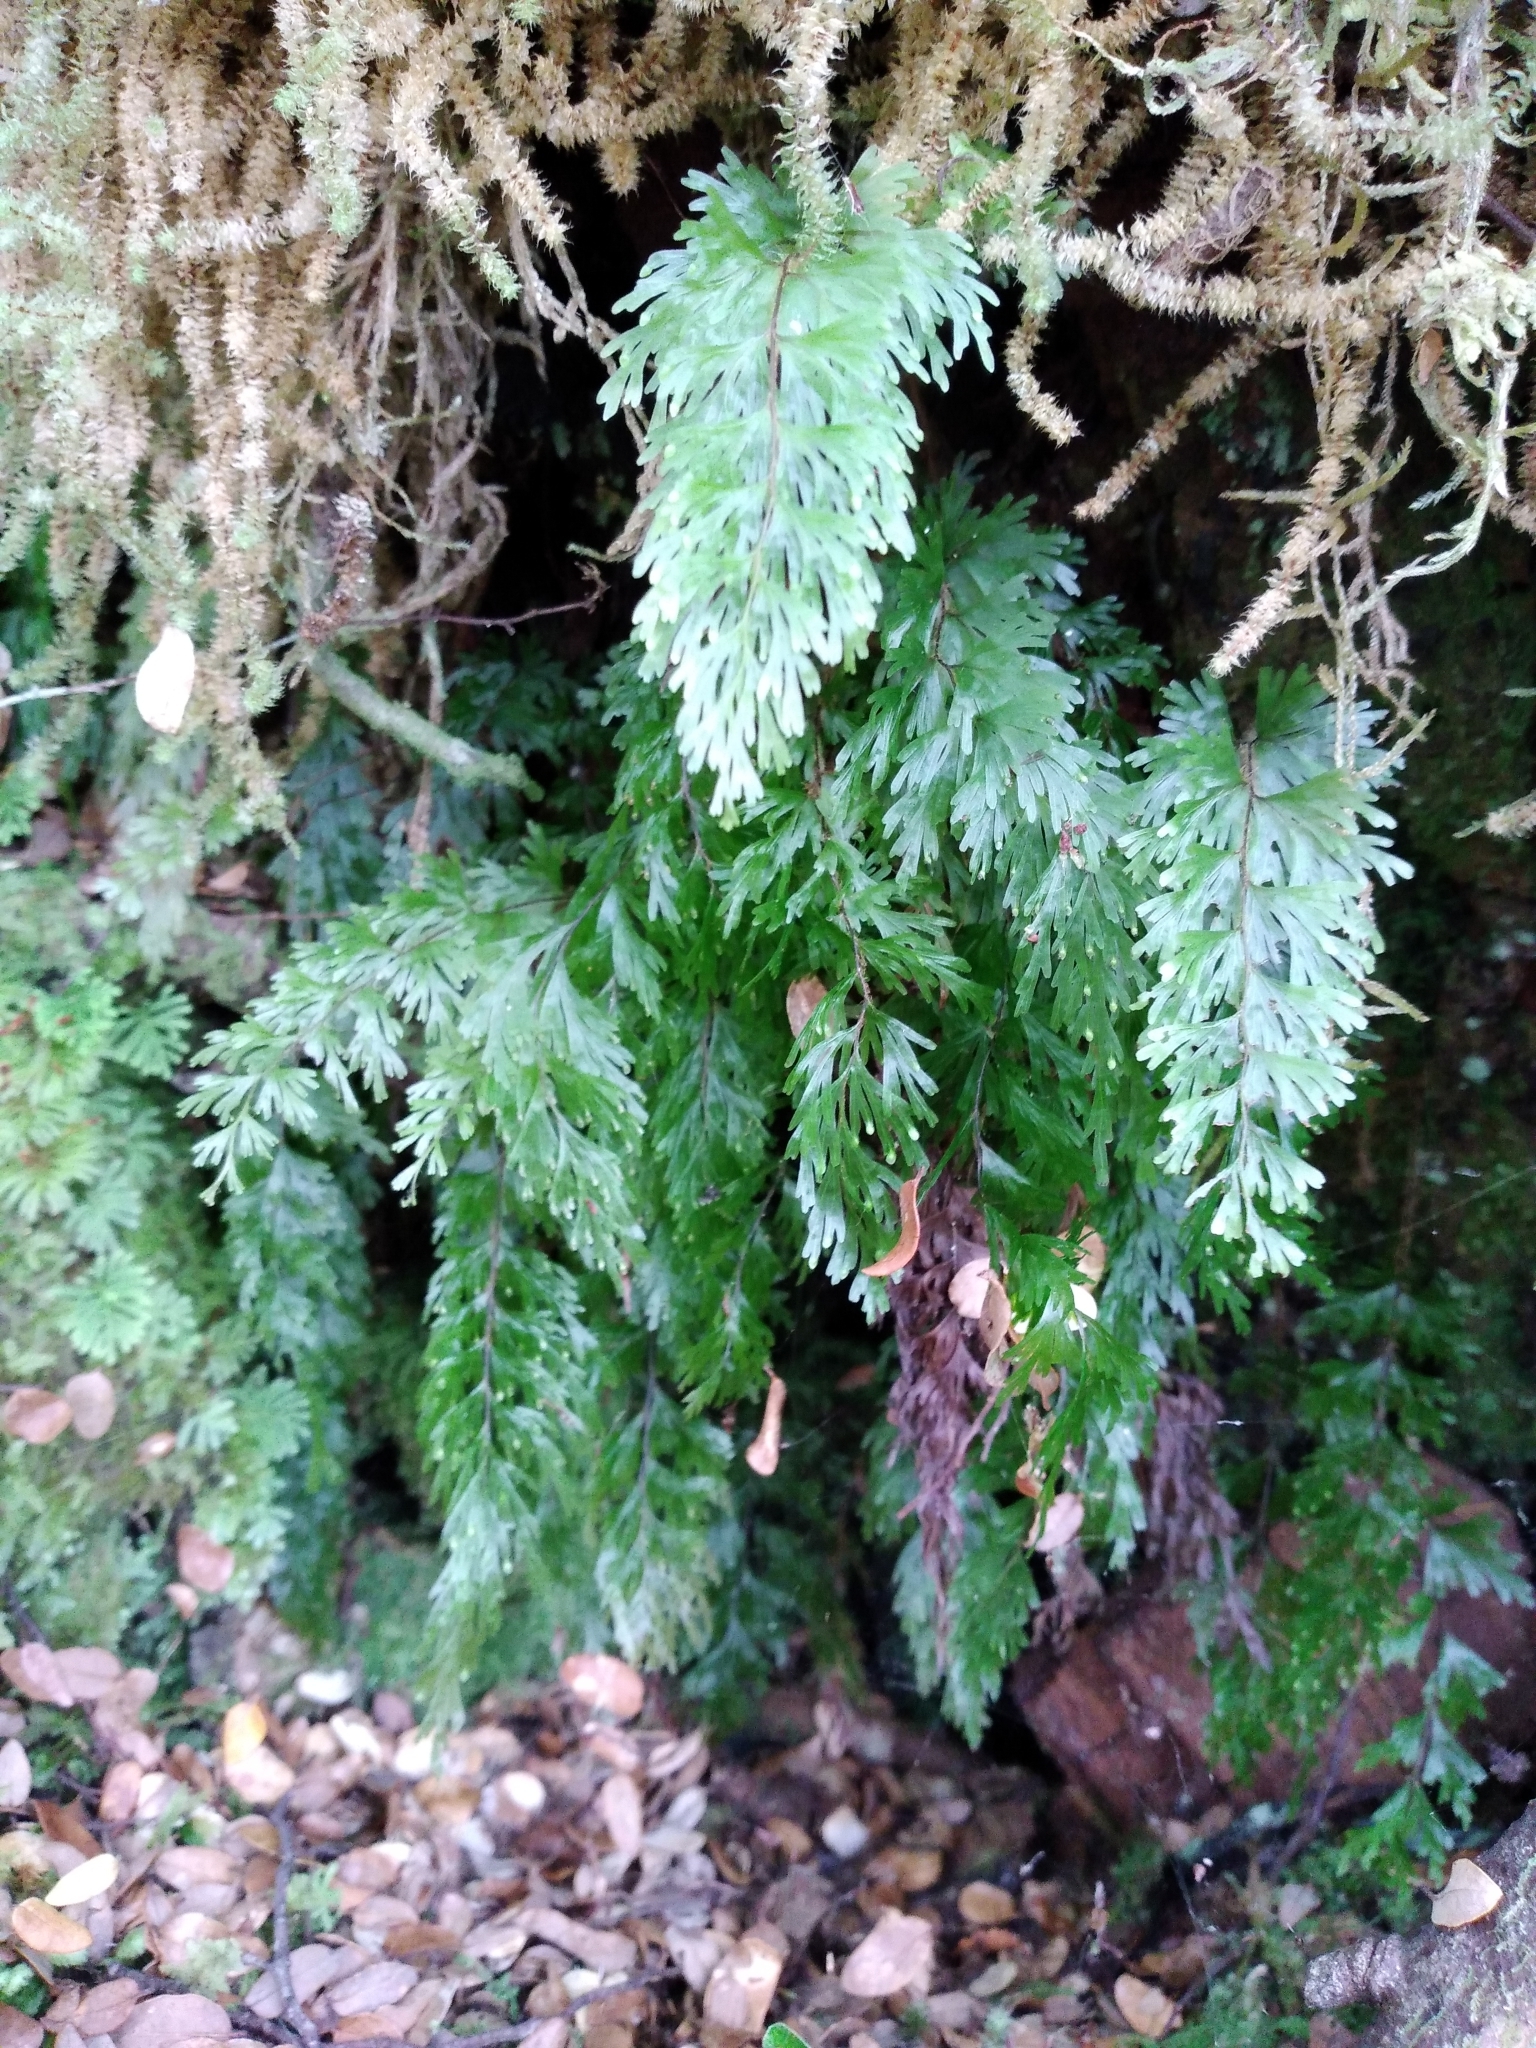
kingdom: Plantae
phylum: Tracheophyta
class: Polypodiopsida
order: Hymenophyllales
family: Hymenophyllaceae
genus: Hymenophyllum
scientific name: Hymenophyllum flabellatum
